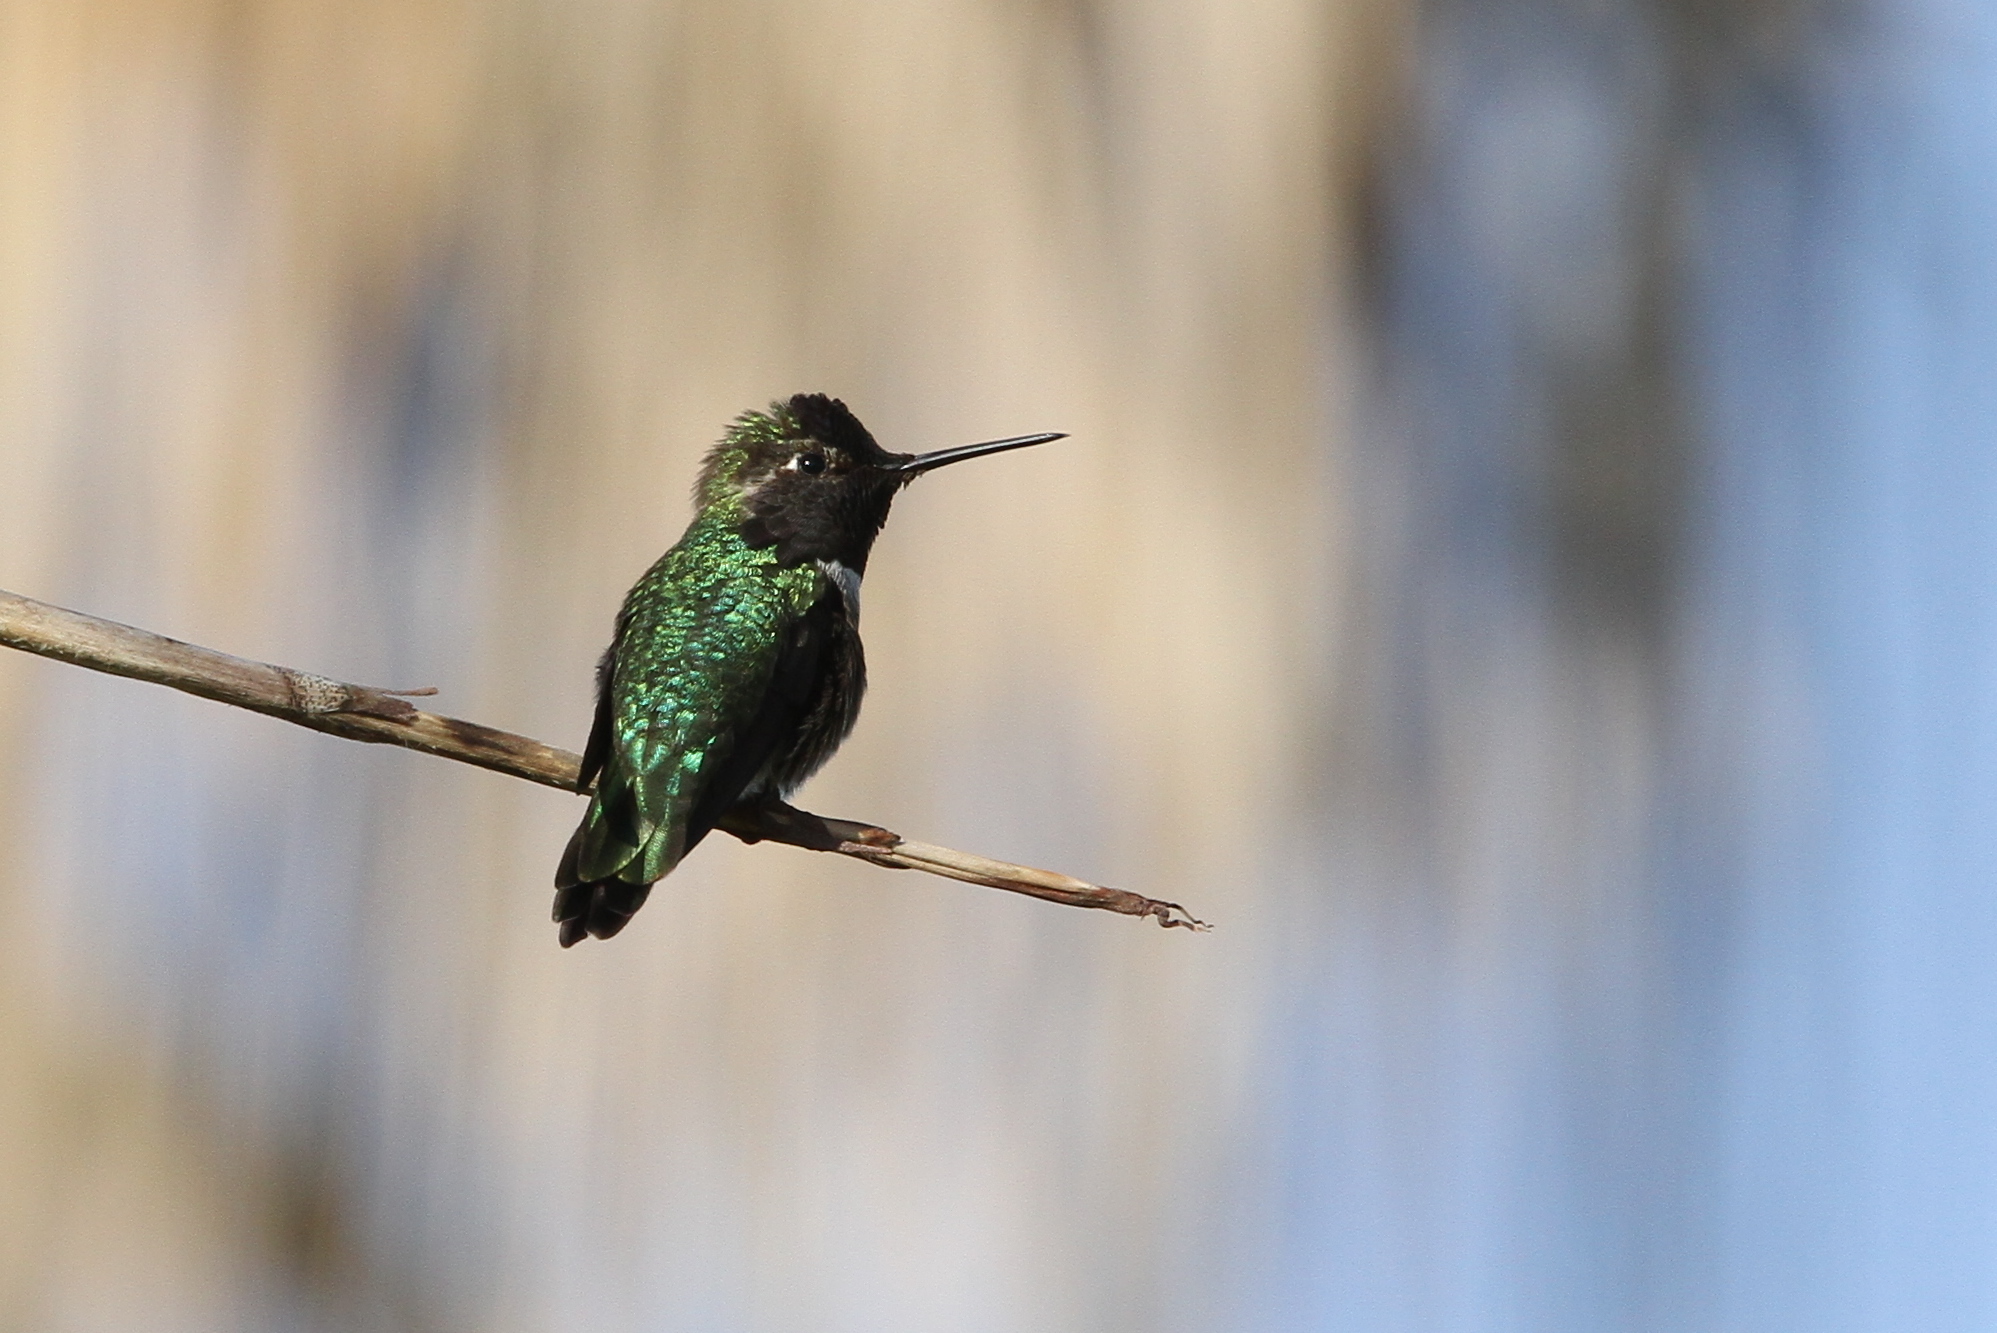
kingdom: Animalia
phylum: Chordata
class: Aves
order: Apodiformes
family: Trochilidae
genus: Calypte
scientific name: Calypte anna
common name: Anna's hummingbird
